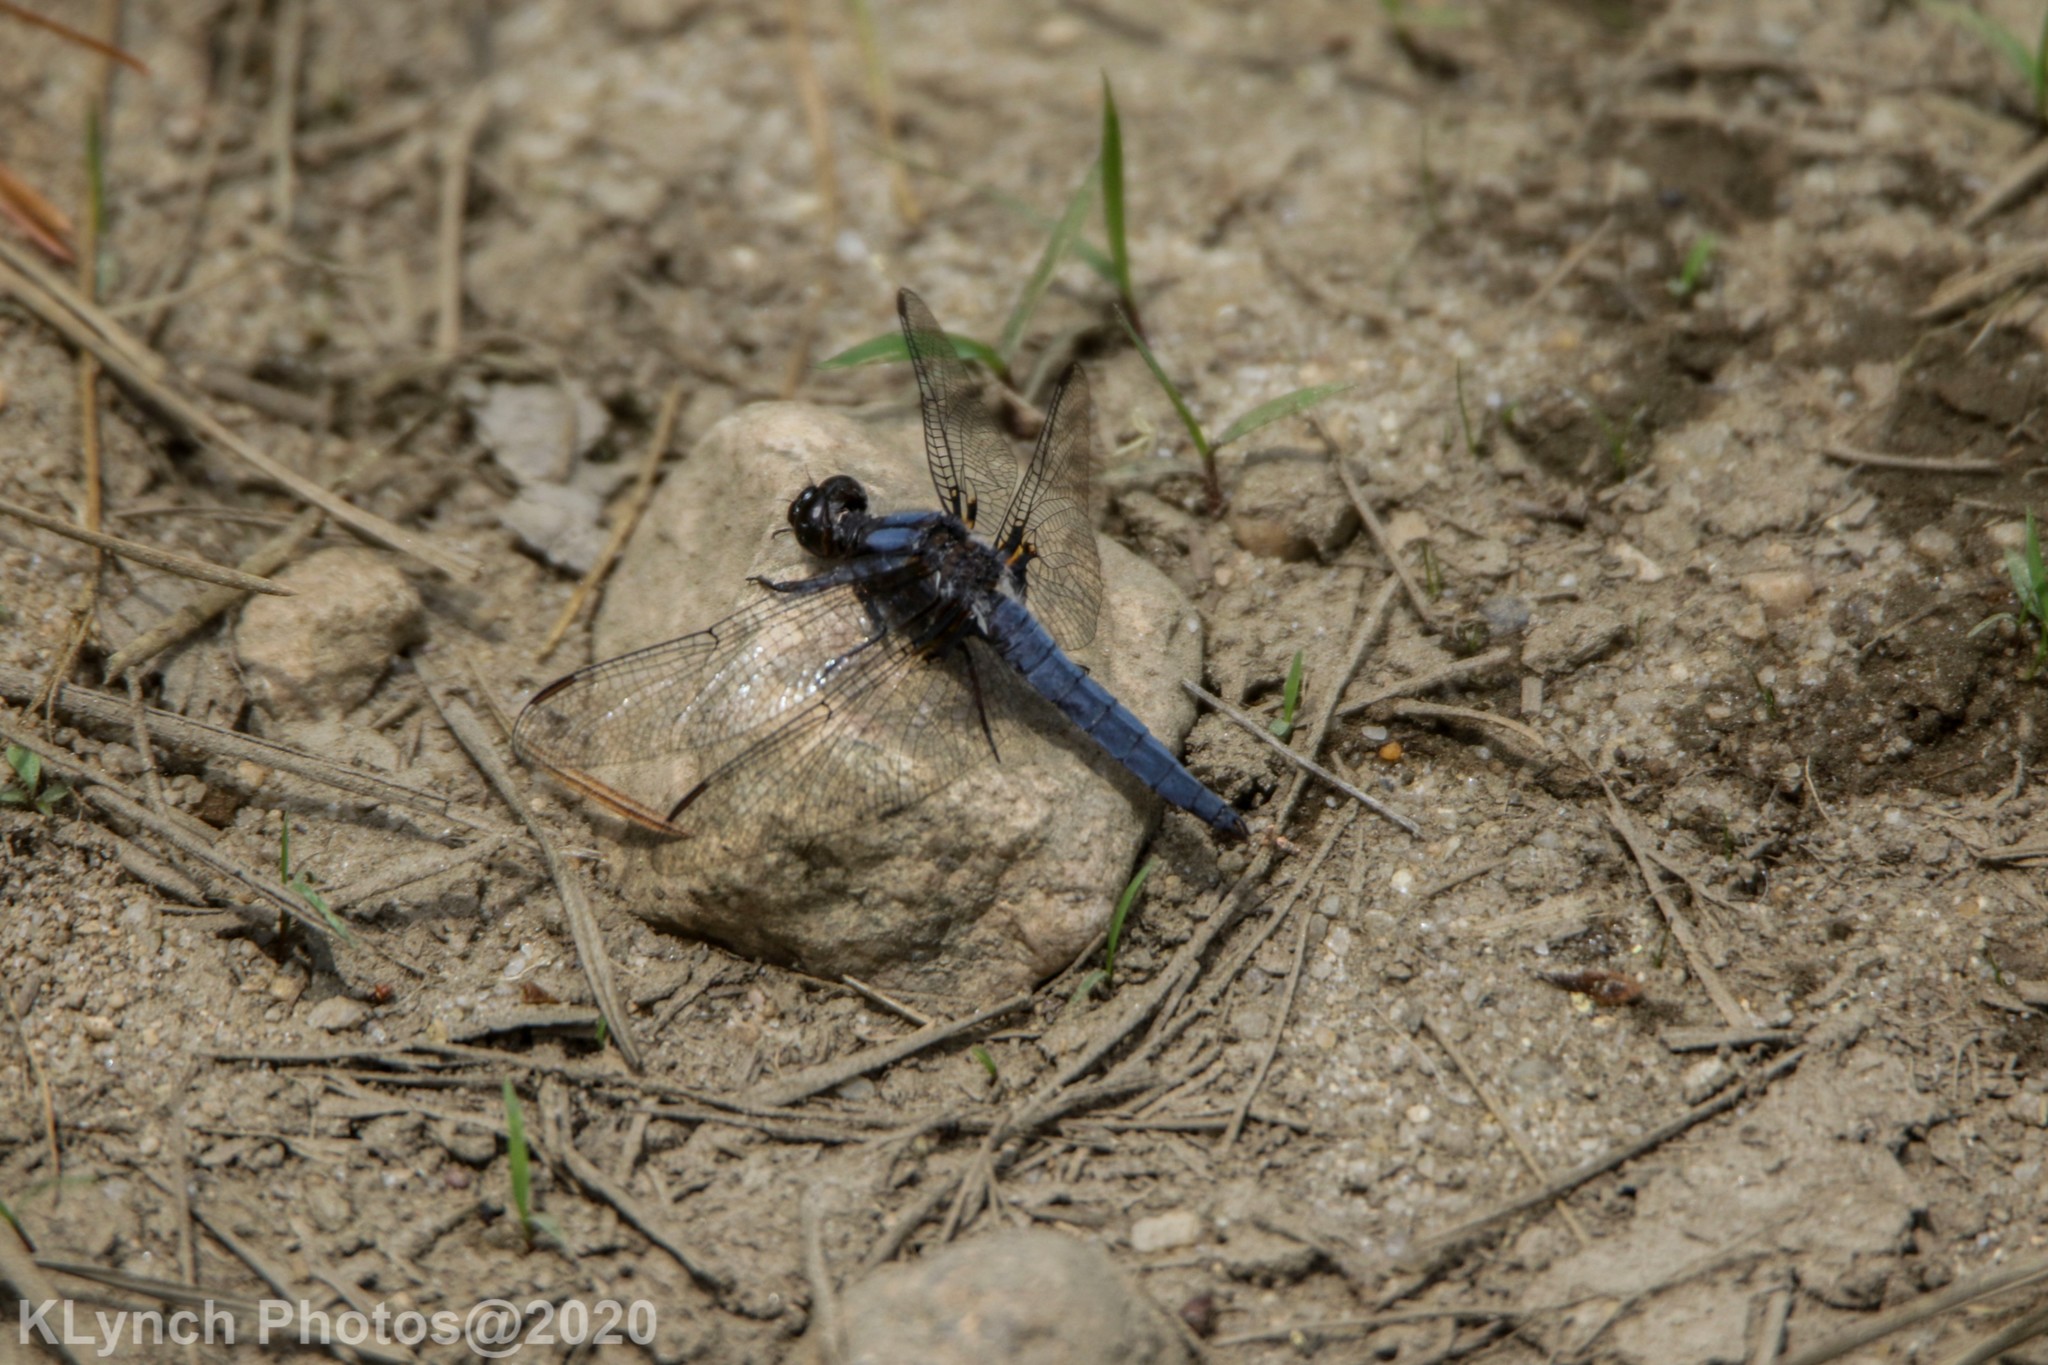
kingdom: Animalia
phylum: Arthropoda
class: Insecta
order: Odonata
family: Libellulidae
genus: Ladona
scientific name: Ladona deplanata
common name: Blue corporal
